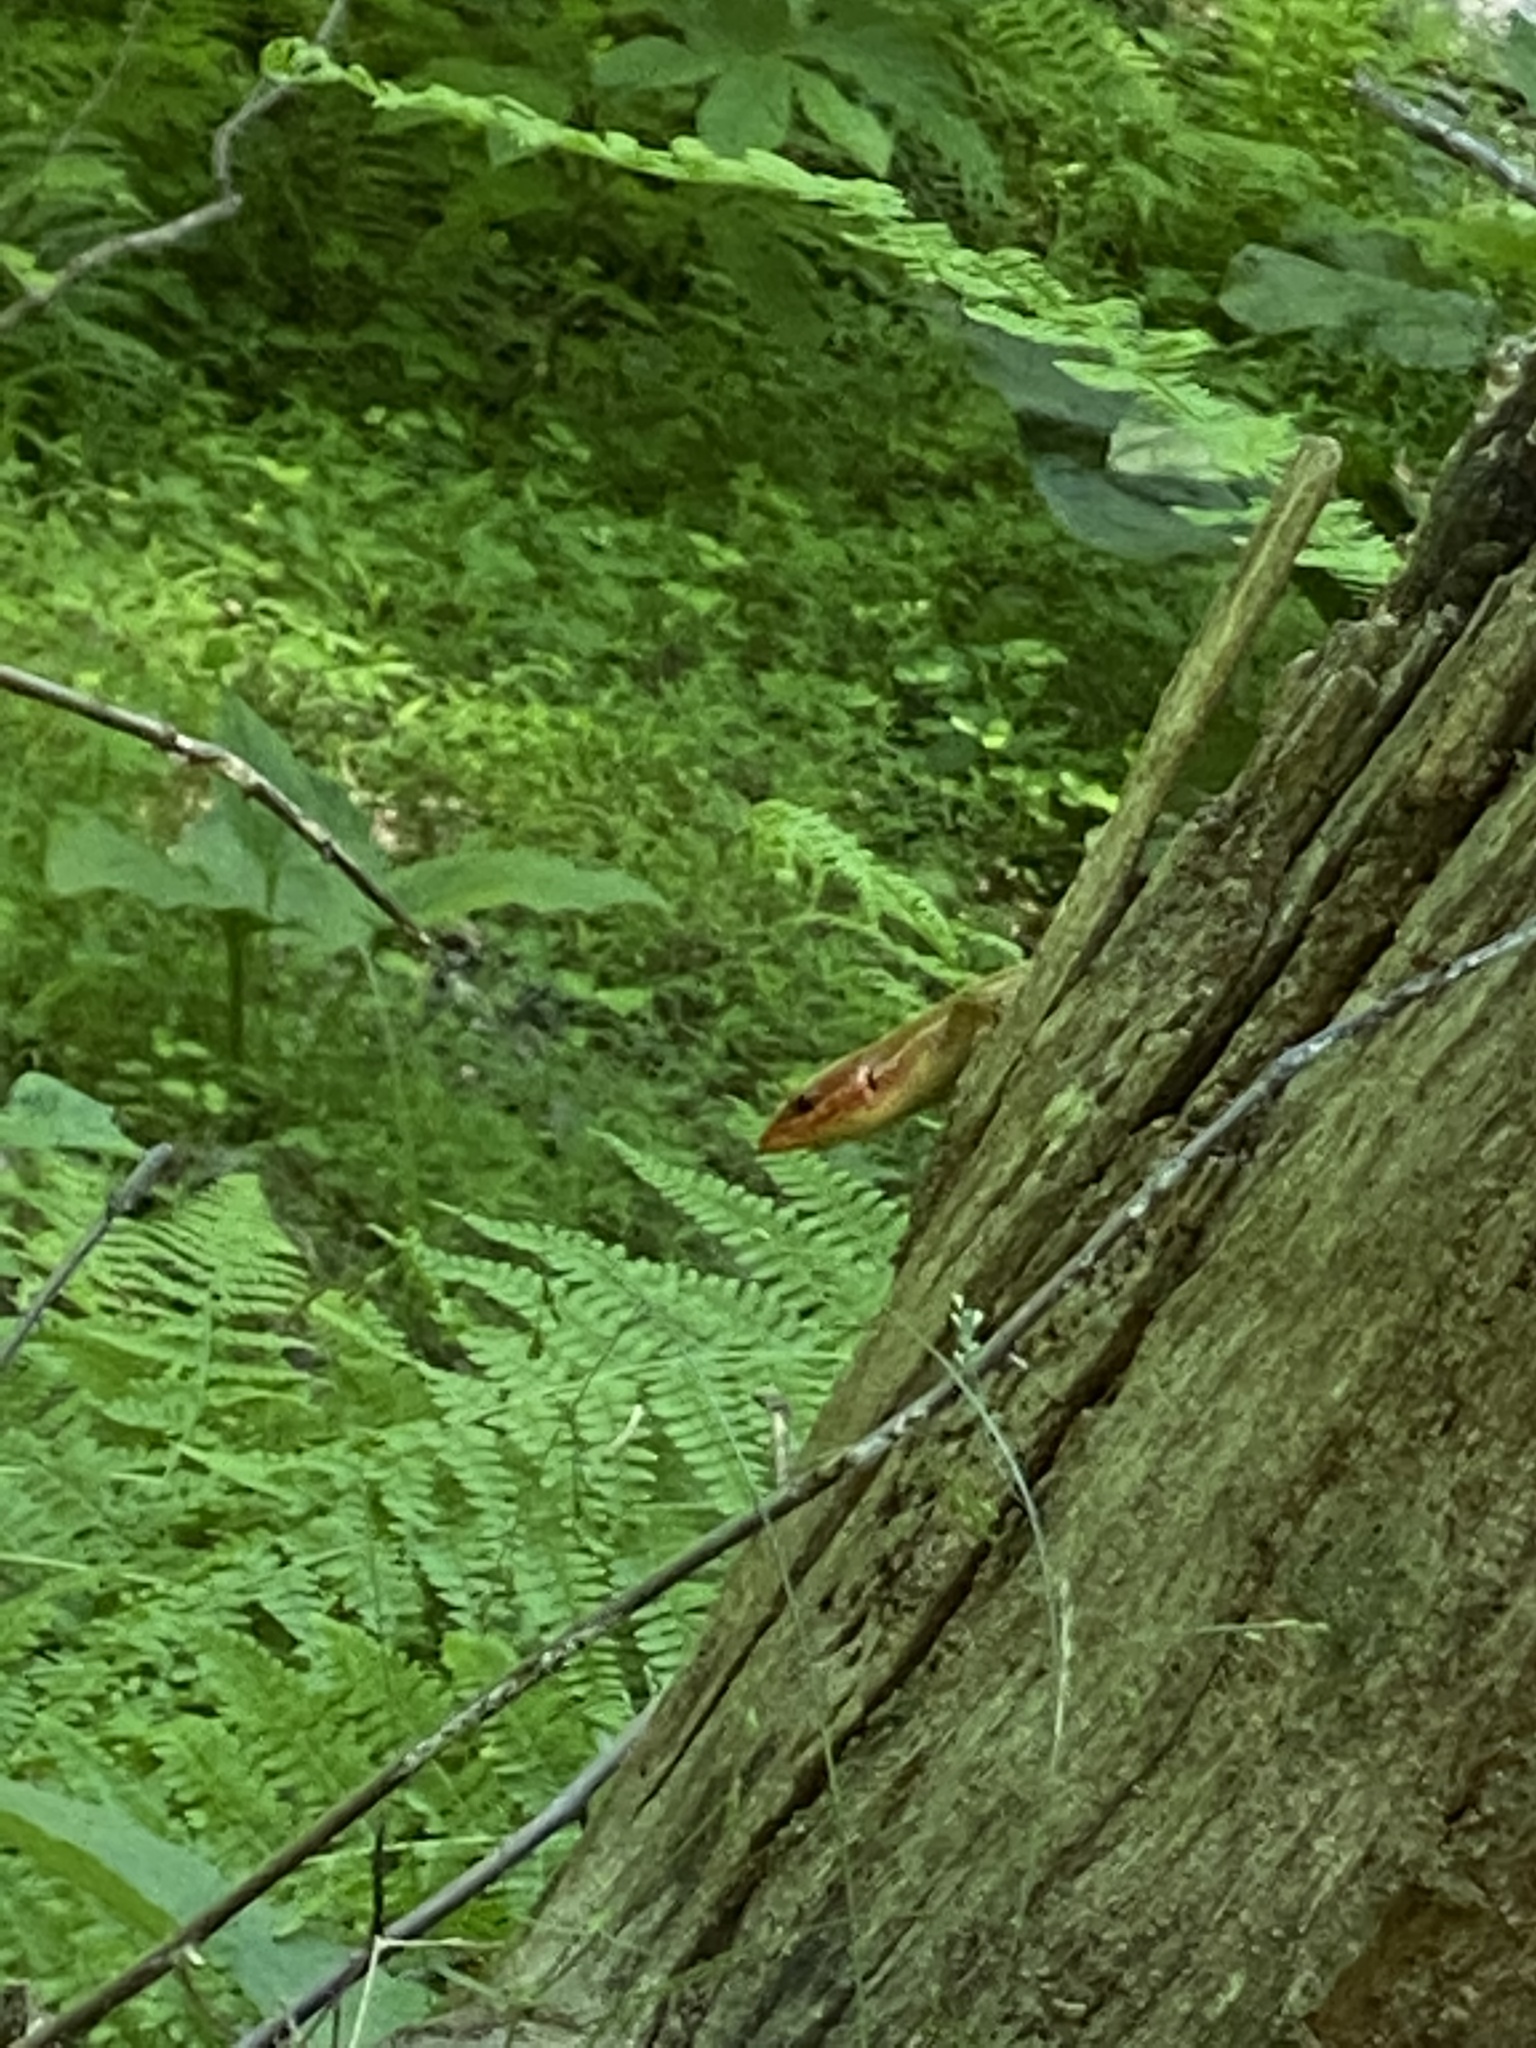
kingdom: Animalia
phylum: Chordata
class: Squamata
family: Scincidae
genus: Plestiodon
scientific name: Plestiodon laticeps
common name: Broadhead skink
